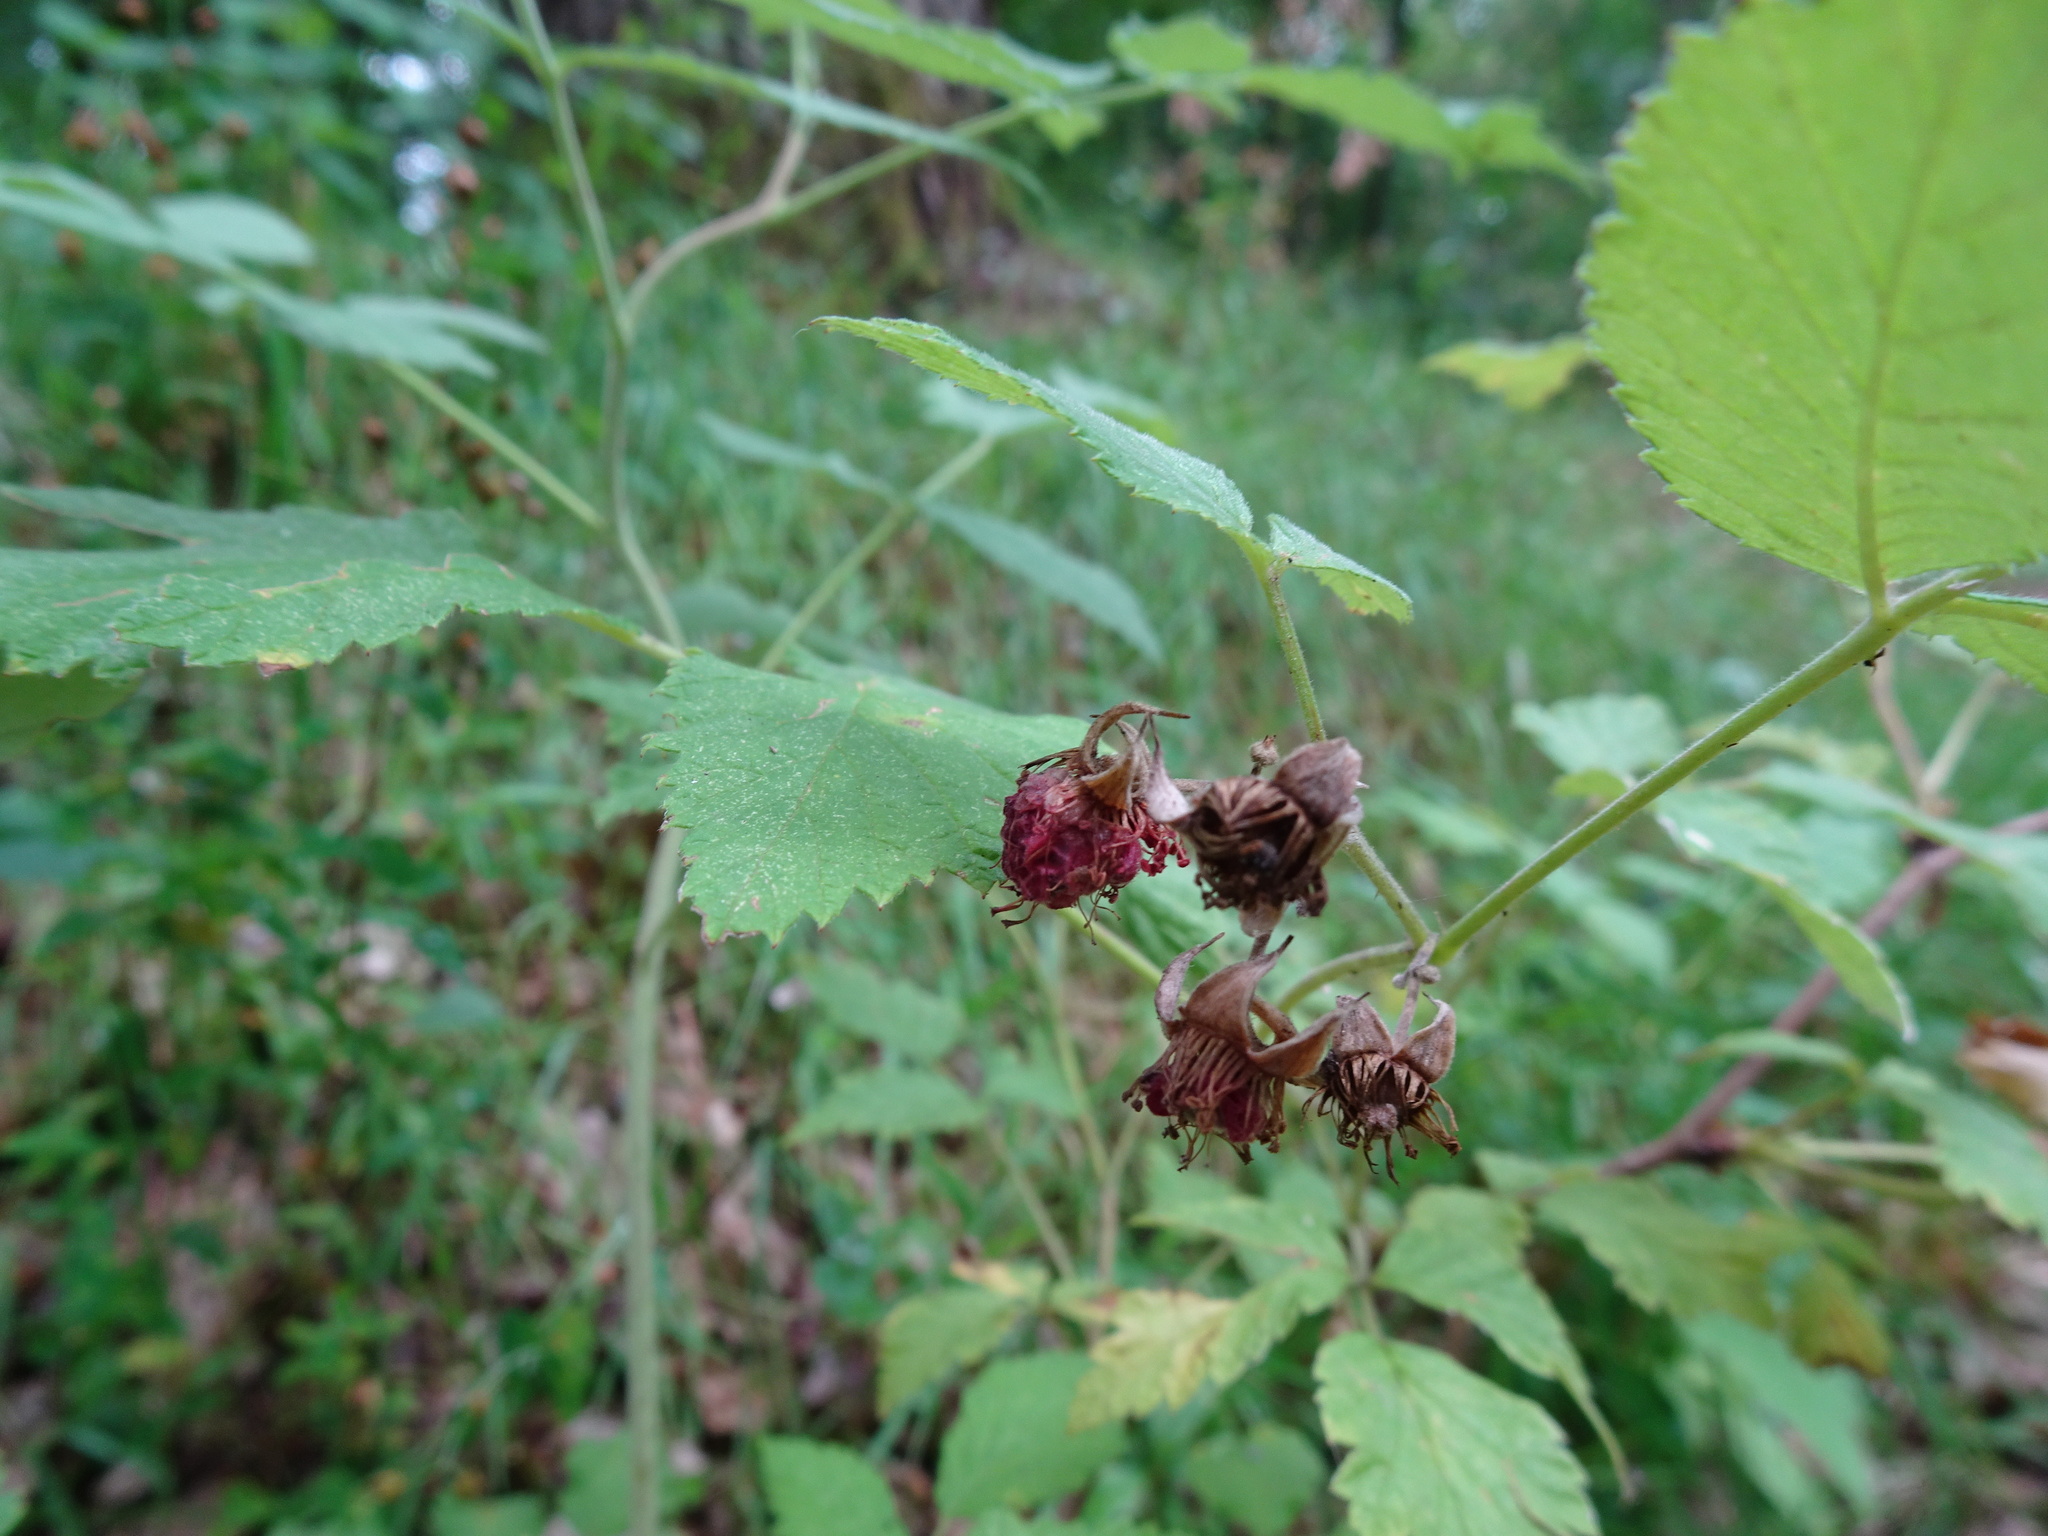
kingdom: Plantae
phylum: Tracheophyta
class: Magnoliopsida
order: Rosales
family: Rosaceae
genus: Rubus
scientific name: Rubus idaeus
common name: Raspberry
